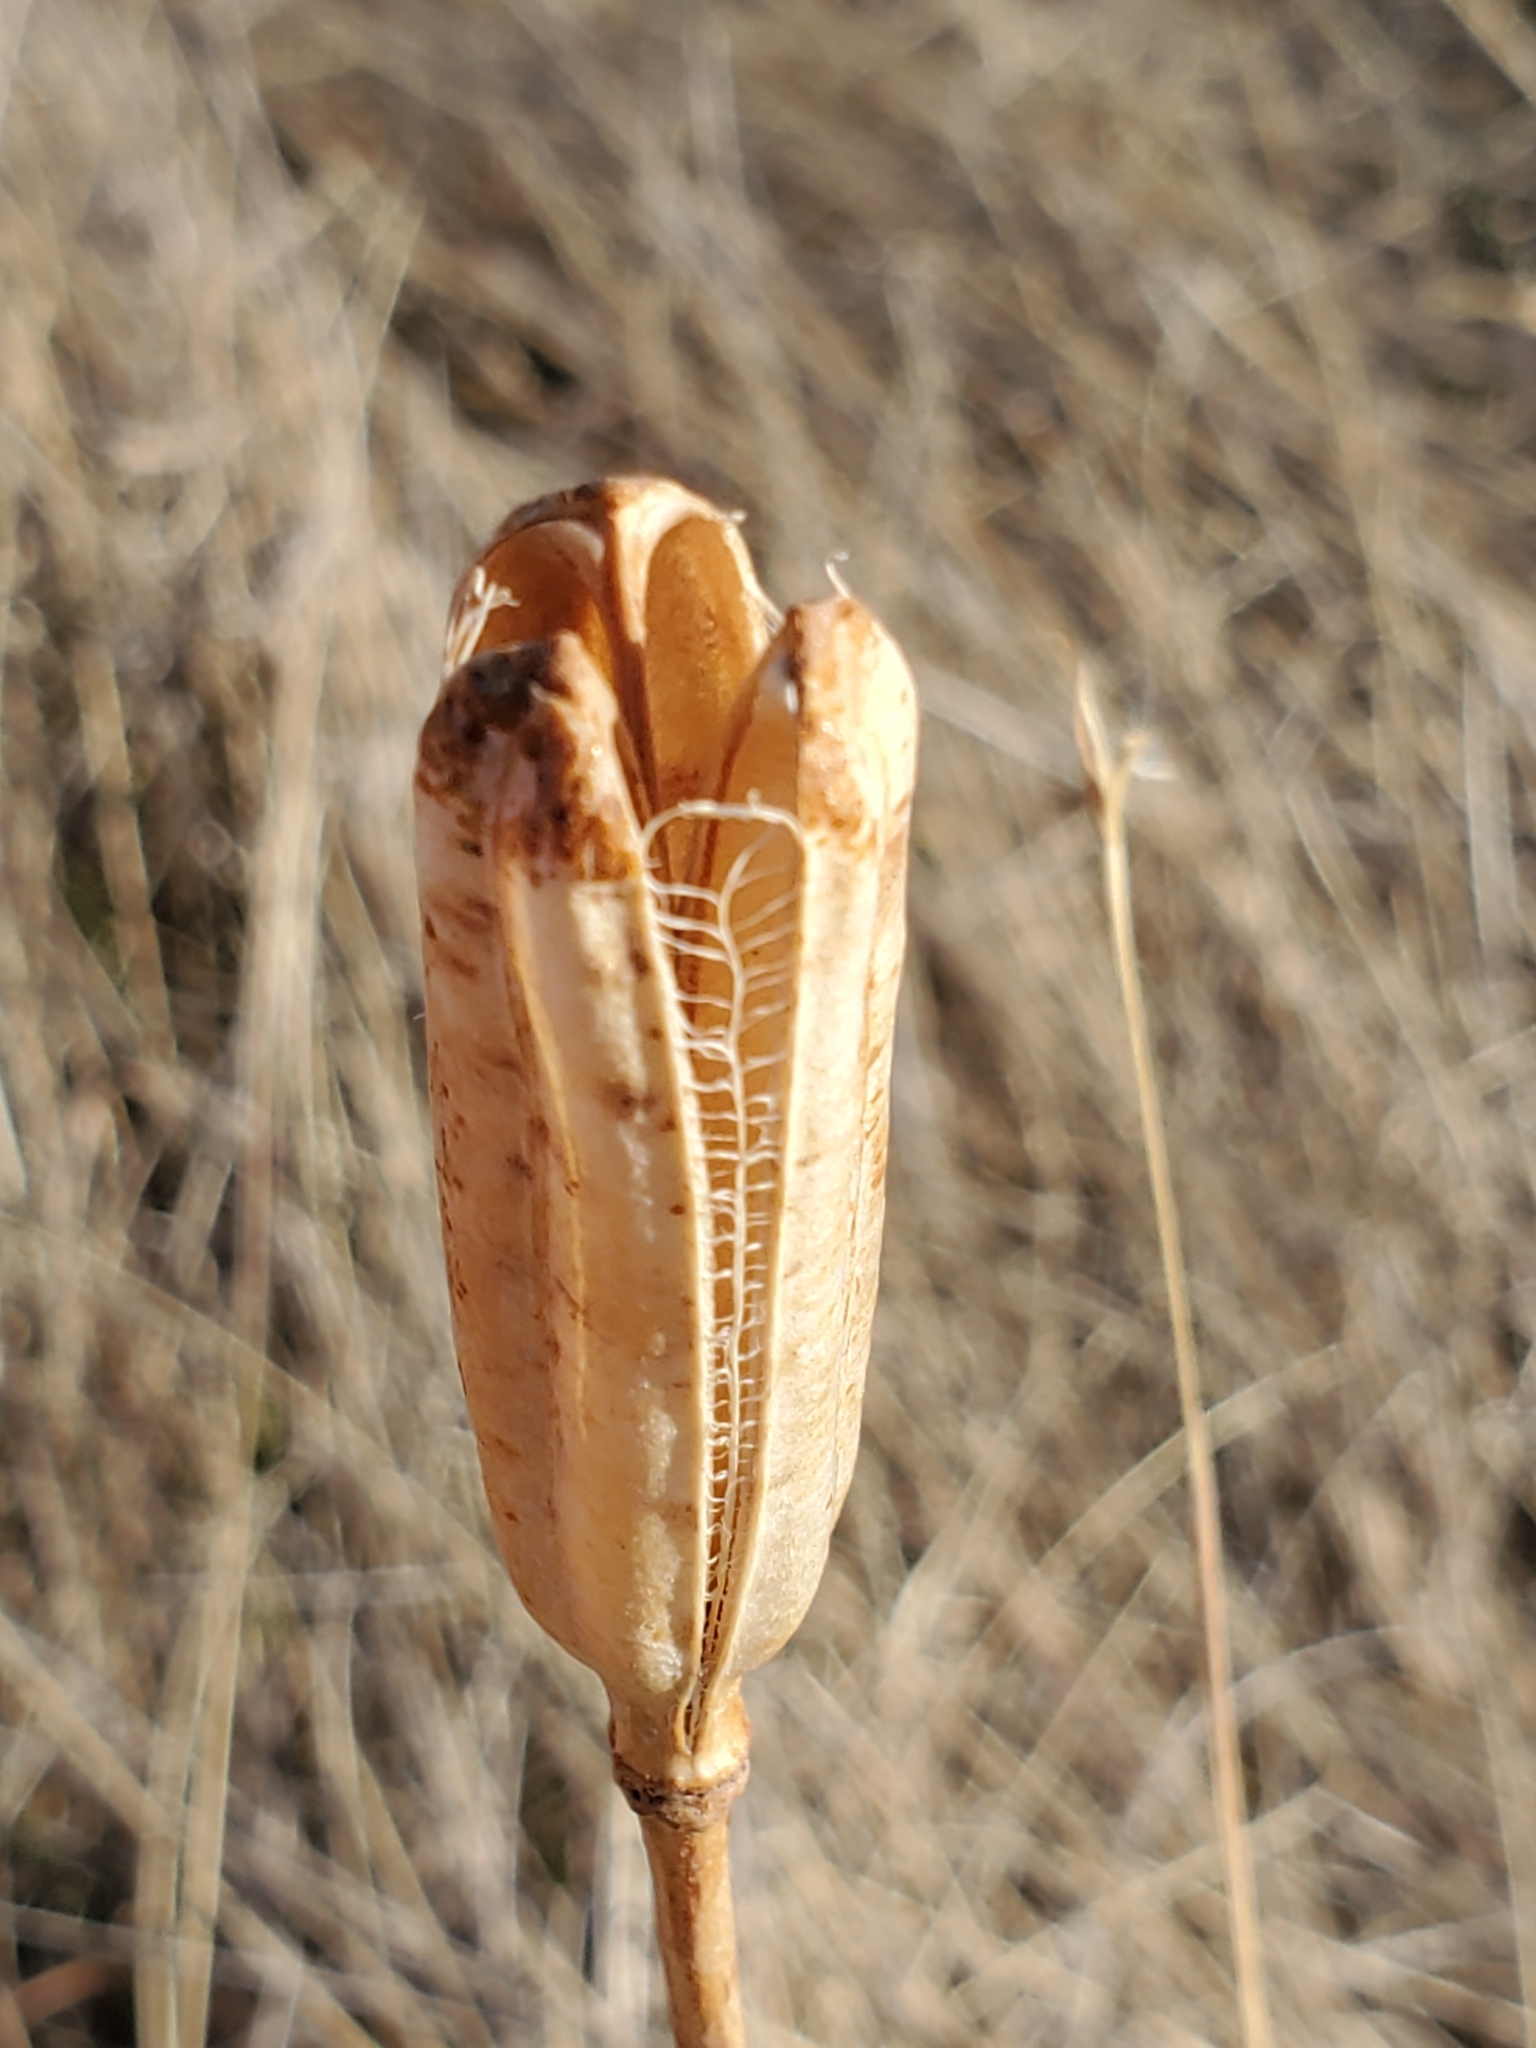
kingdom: Plantae
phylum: Tracheophyta
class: Liliopsida
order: Liliales
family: Liliaceae
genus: Lilium
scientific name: Lilium philadelphicum
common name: Red lily
